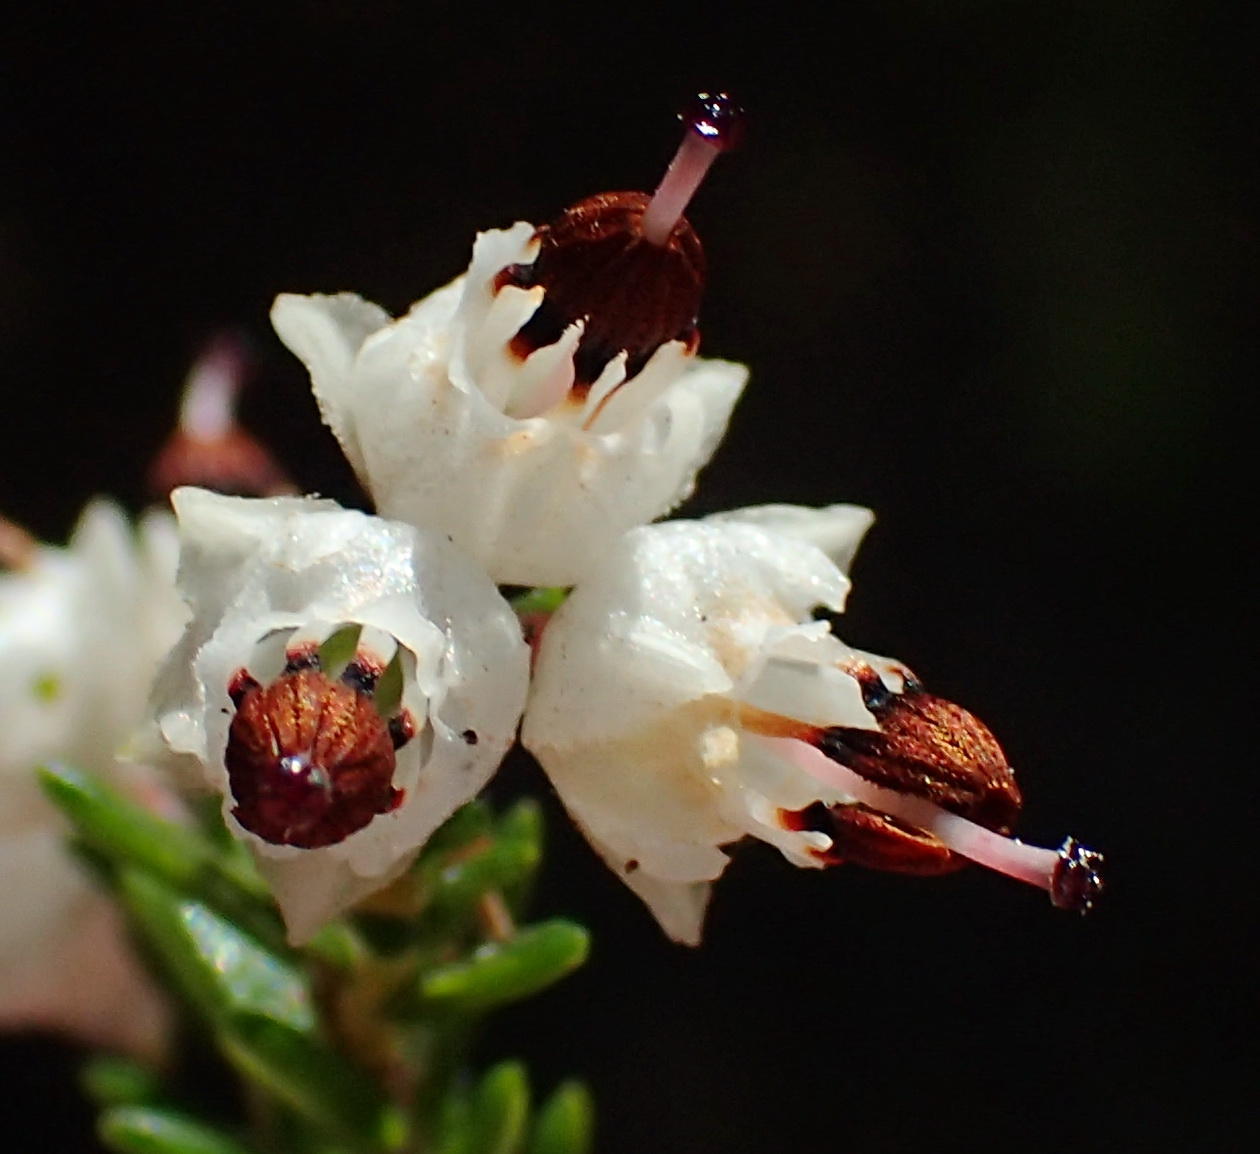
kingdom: Plantae
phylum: Tracheophyta
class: Magnoliopsida
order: Ericales
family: Ericaceae
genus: Erica
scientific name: Erica triceps
